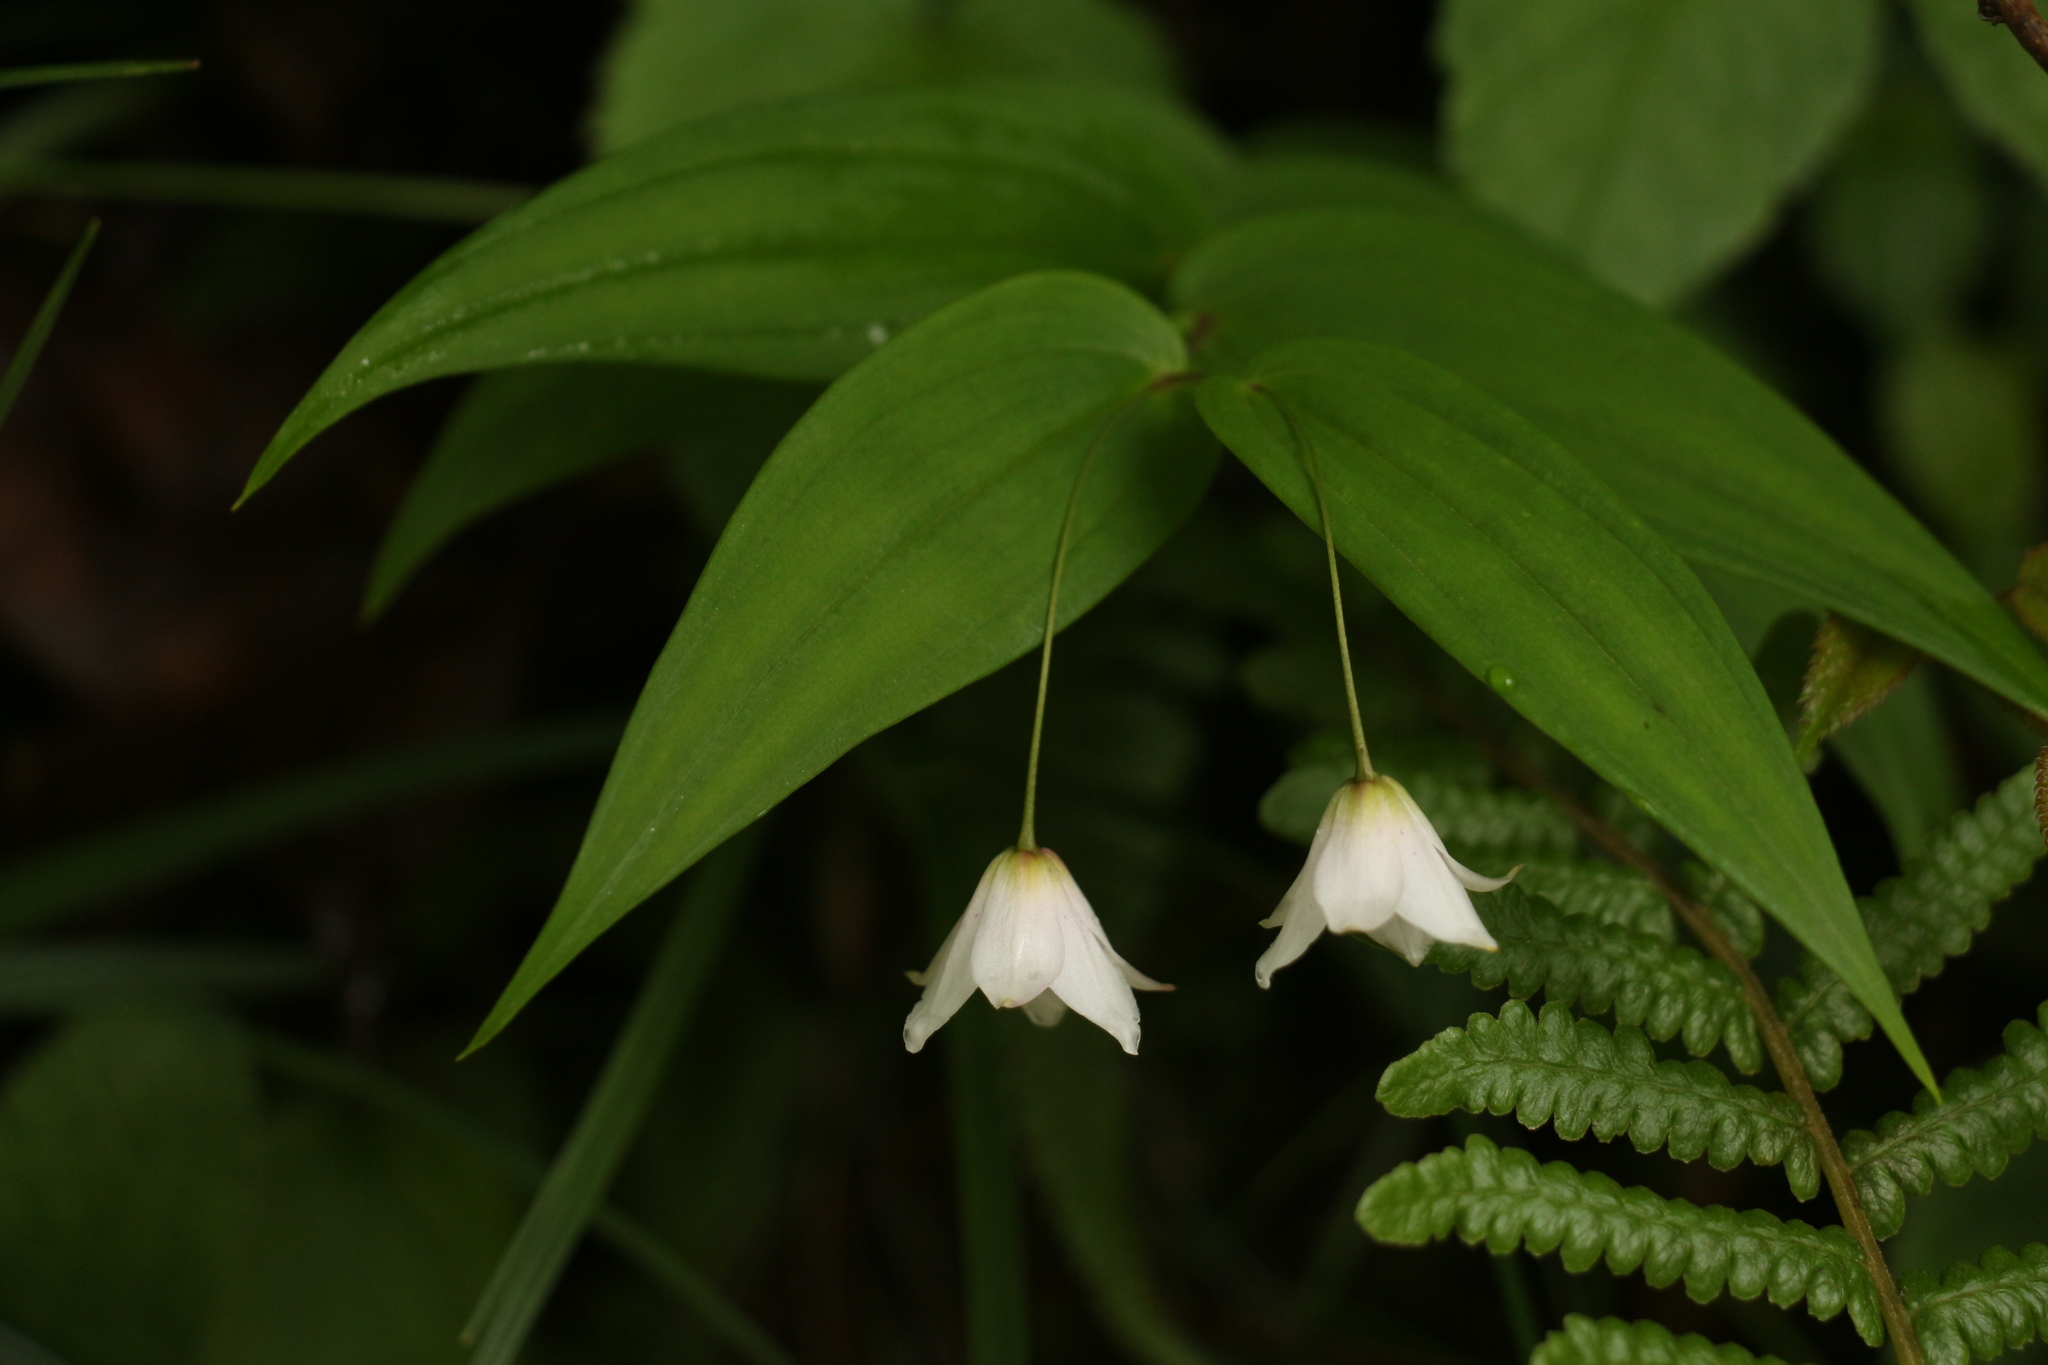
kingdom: Plantae
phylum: Tracheophyta
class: Liliopsida
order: Liliales
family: Liliaceae
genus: Streptopus
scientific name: Streptopus simplex
